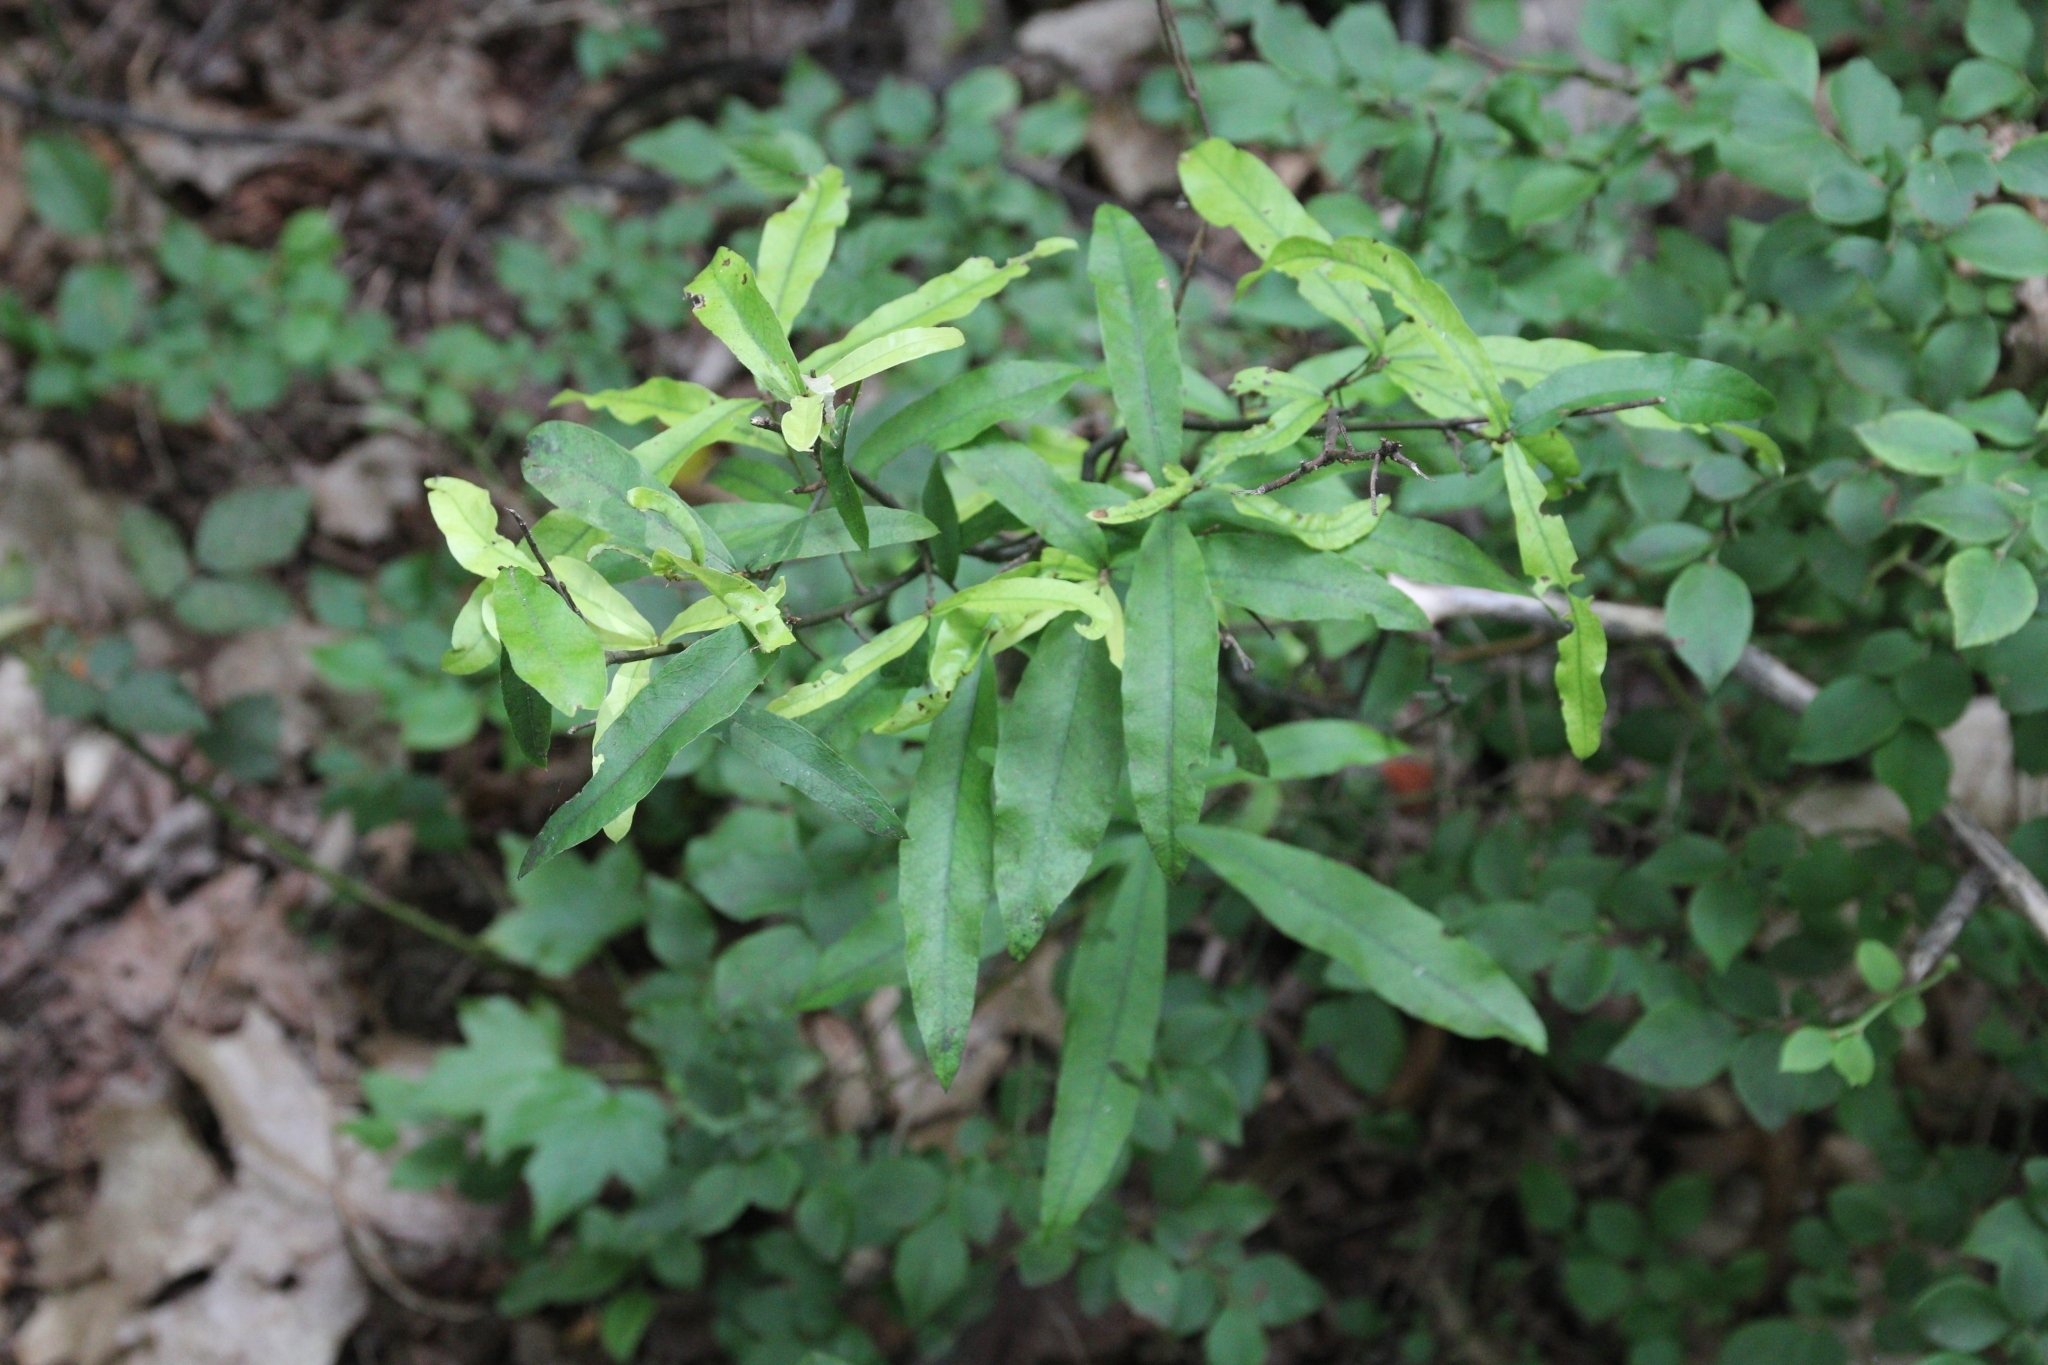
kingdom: Plantae
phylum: Tracheophyta
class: Magnoliopsida
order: Fagales
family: Fagaceae
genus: Quercus
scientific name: Quercus phellos
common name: Willow oak
